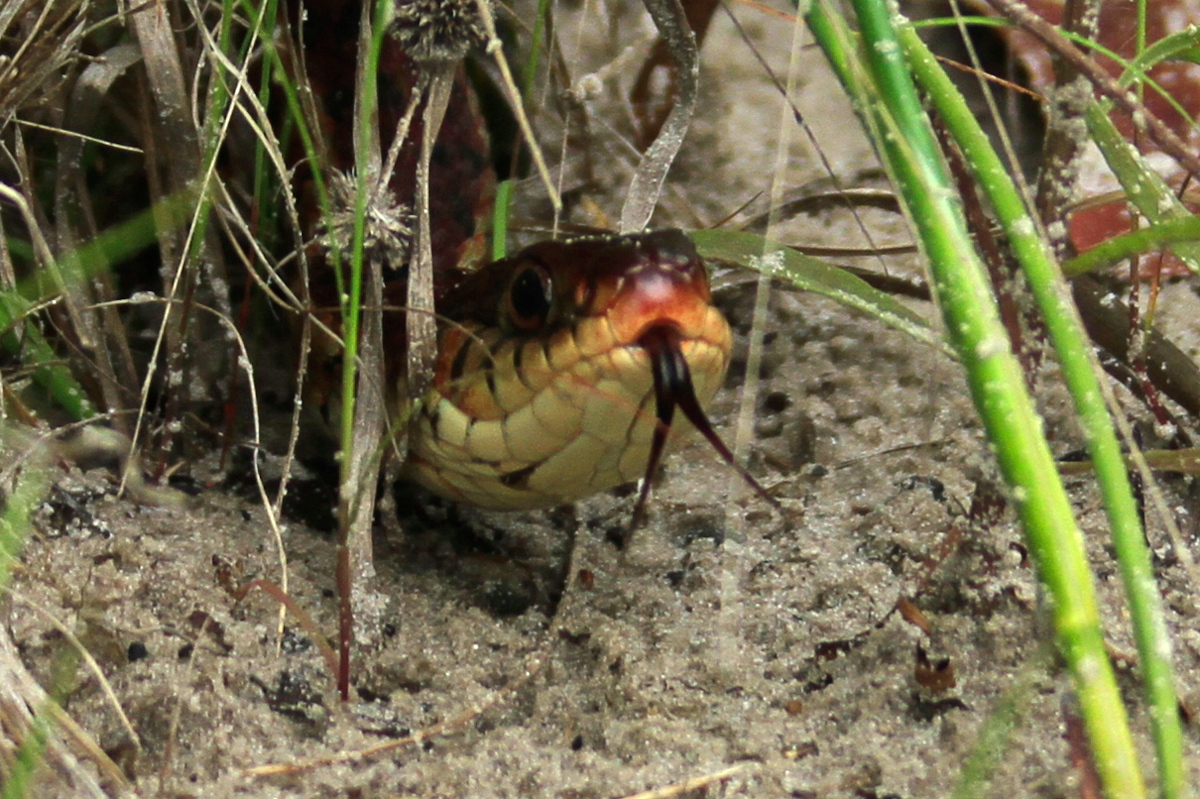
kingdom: Animalia
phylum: Chordata
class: Squamata
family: Colubridae
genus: Thamnophis
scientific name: Thamnophis sirtalis
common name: Common garter snake
